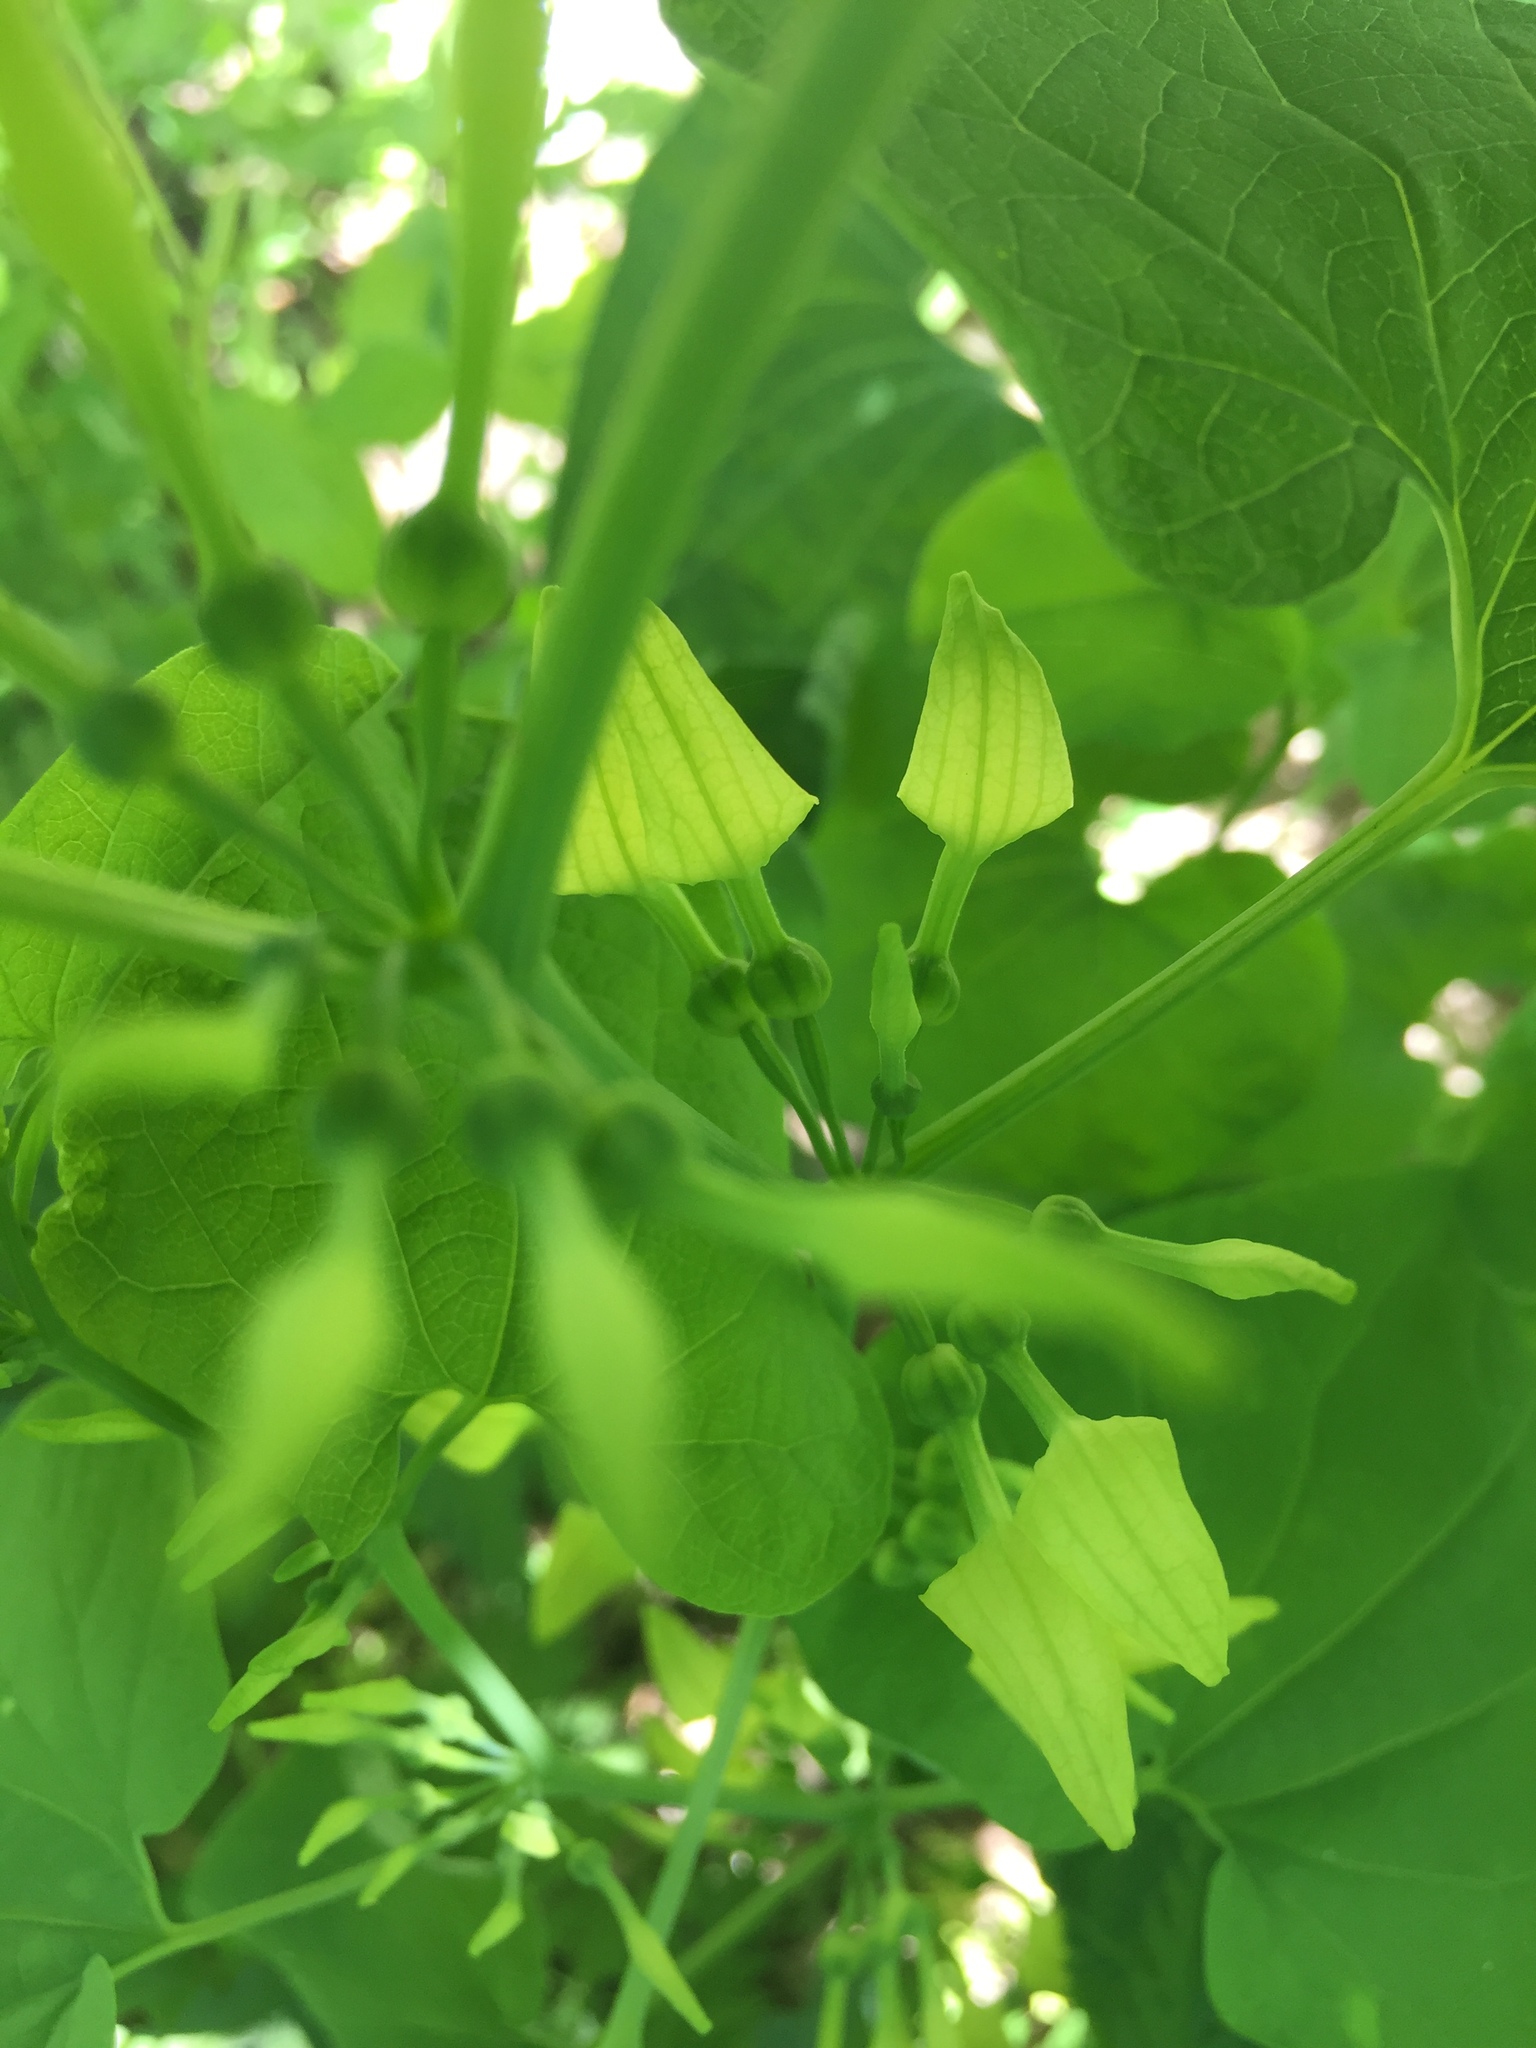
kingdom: Plantae
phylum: Tracheophyta
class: Magnoliopsida
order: Piperales
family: Aristolochiaceae
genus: Aristolochia
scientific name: Aristolochia clematitis
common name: Birthwort
